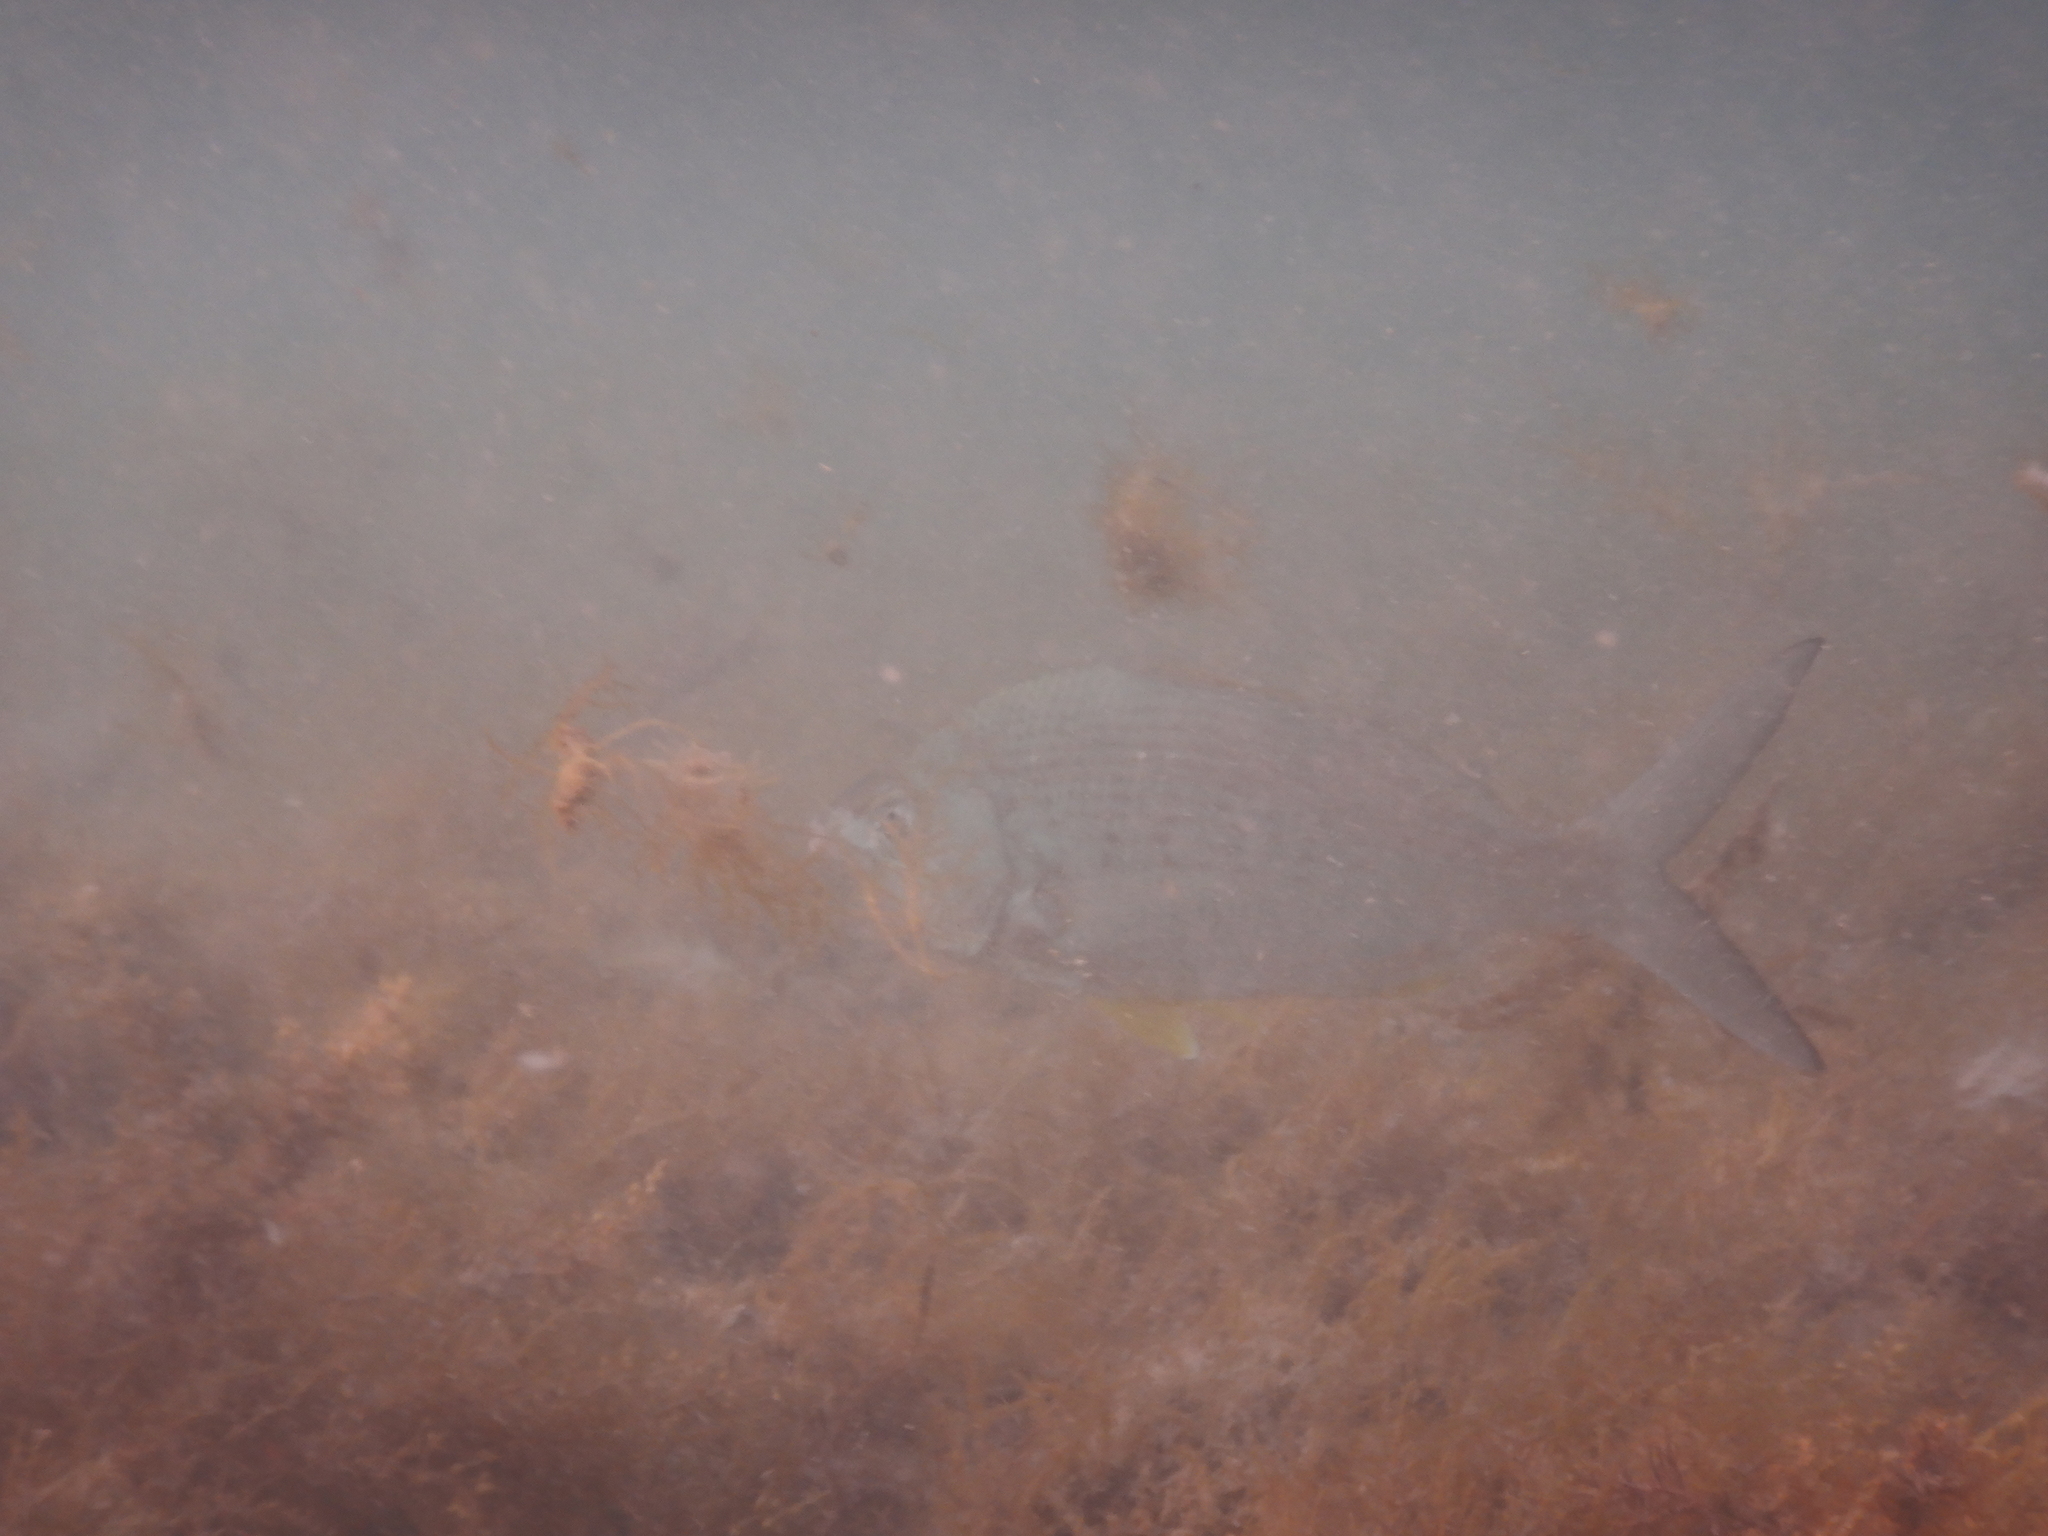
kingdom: Animalia
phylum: Chordata
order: Perciformes
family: Gerreidae
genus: Gerres
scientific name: Gerres longirostris
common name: Strongspine silver-biddy
